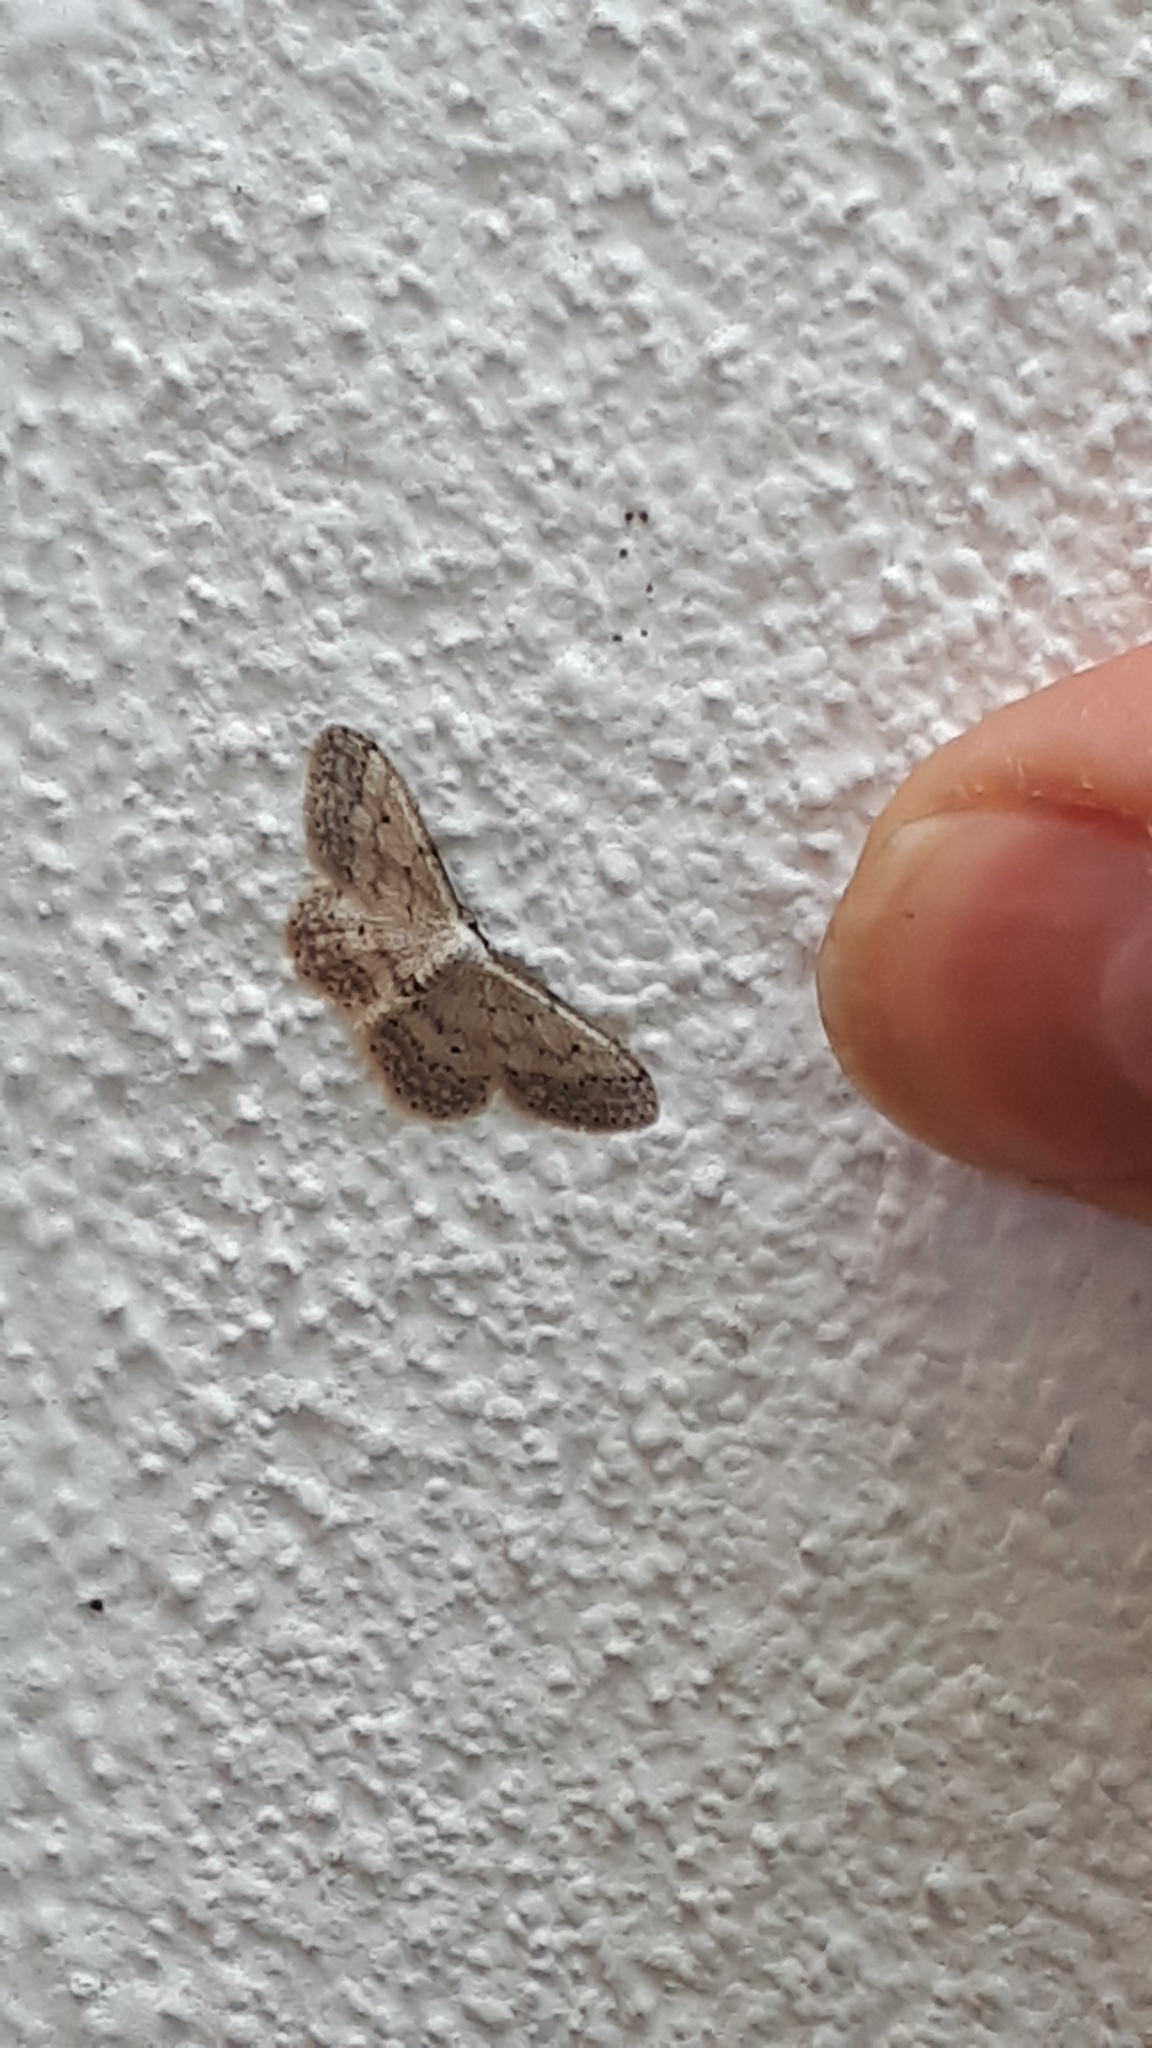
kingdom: Animalia
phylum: Arthropoda
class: Insecta
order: Lepidoptera
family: Geometridae
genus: Idaea
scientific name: Idaea seriata
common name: Small dusty wave
